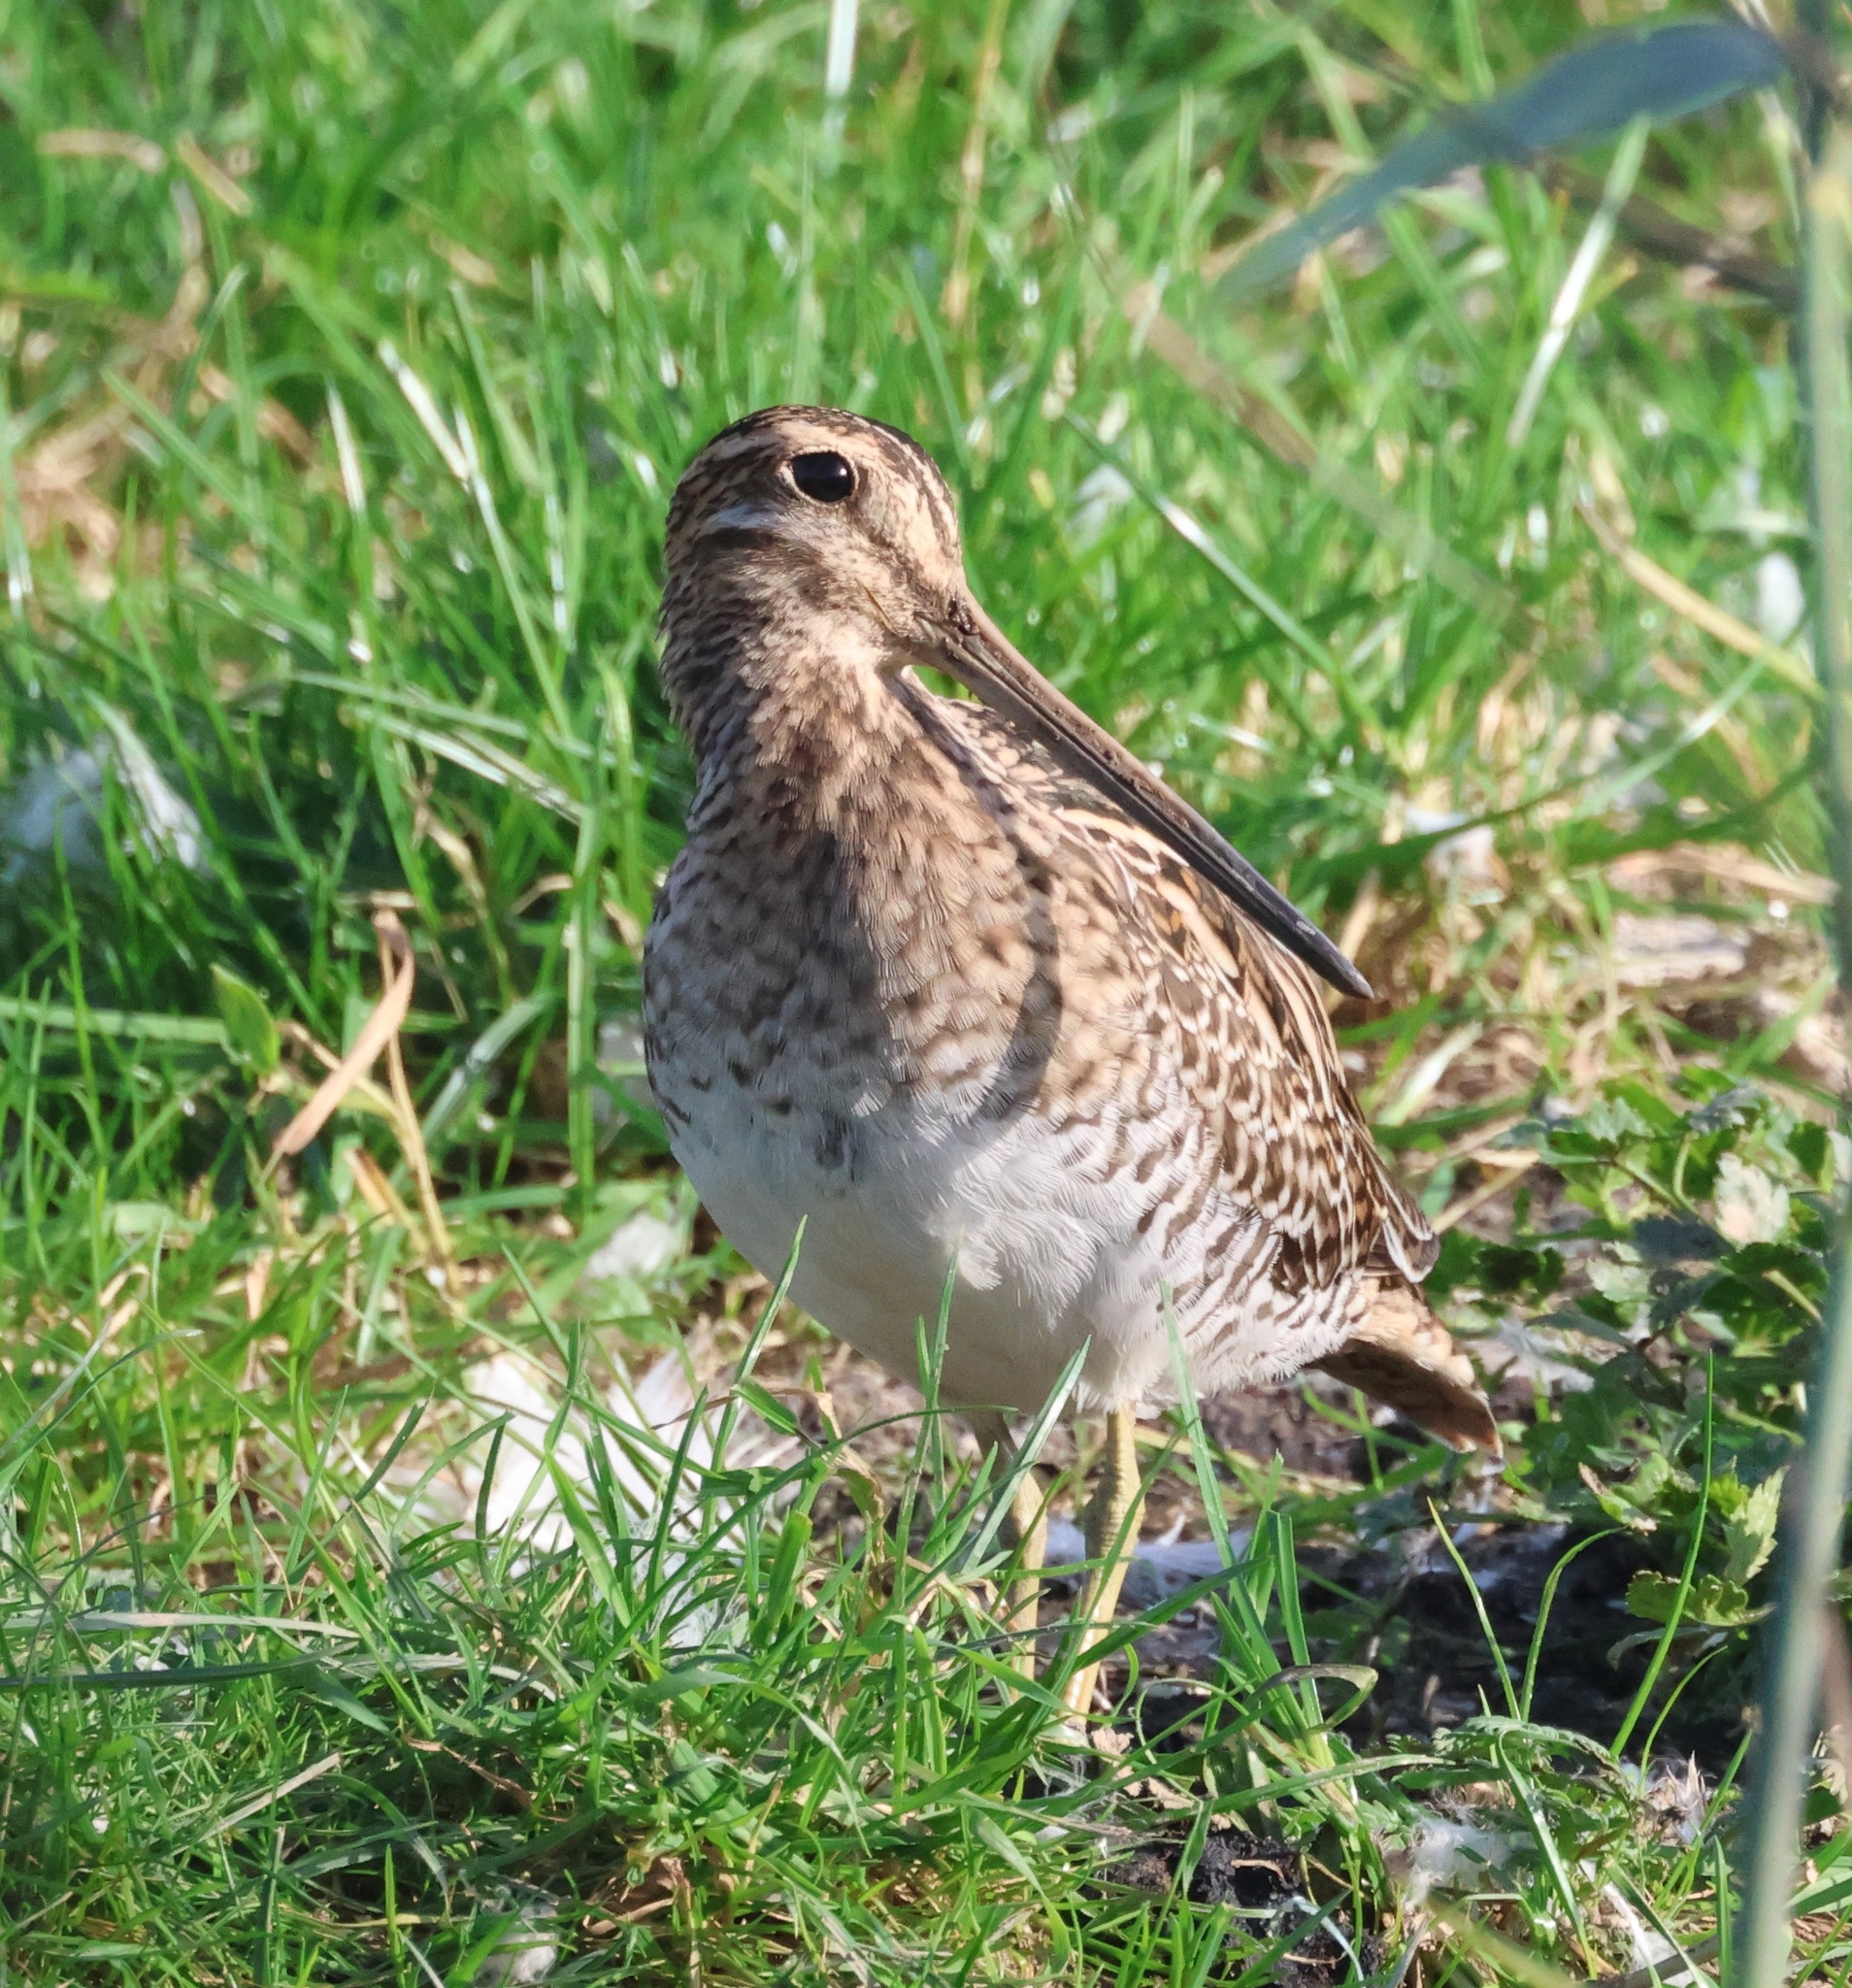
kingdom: Animalia
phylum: Chordata
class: Aves
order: Charadriiformes
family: Scolopacidae
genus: Gallinago
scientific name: Gallinago gallinago
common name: Common snipe
